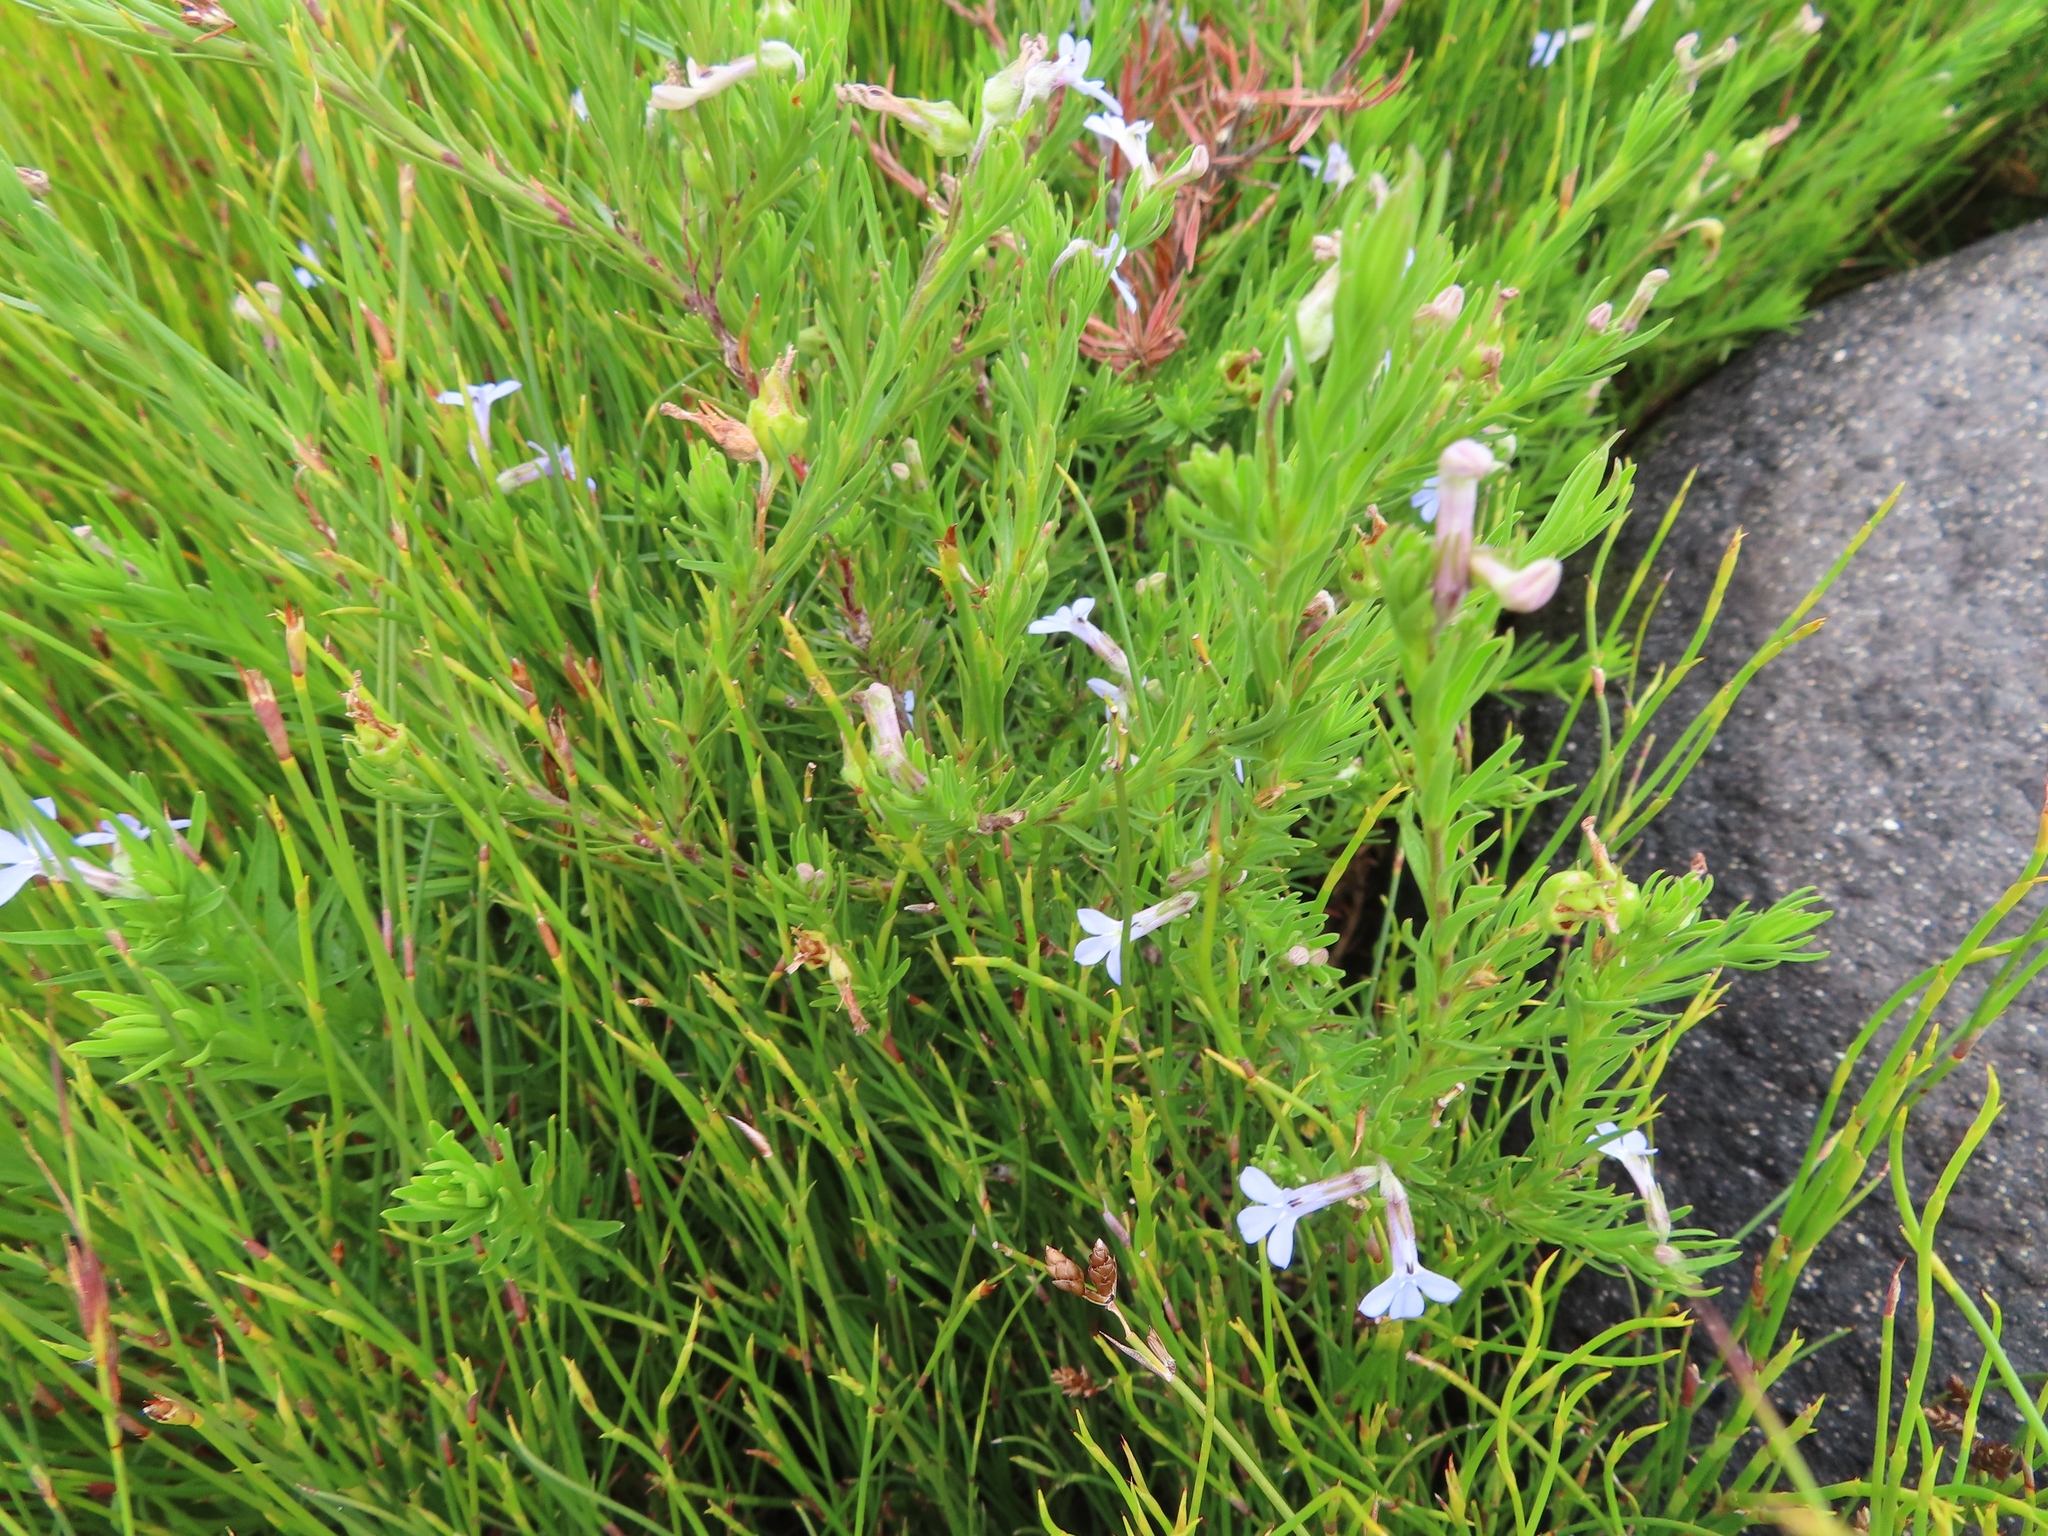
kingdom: Plantae
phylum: Tracheophyta
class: Magnoliopsida
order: Asterales
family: Campanulaceae
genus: Lobelia
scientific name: Lobelia pinifolia
